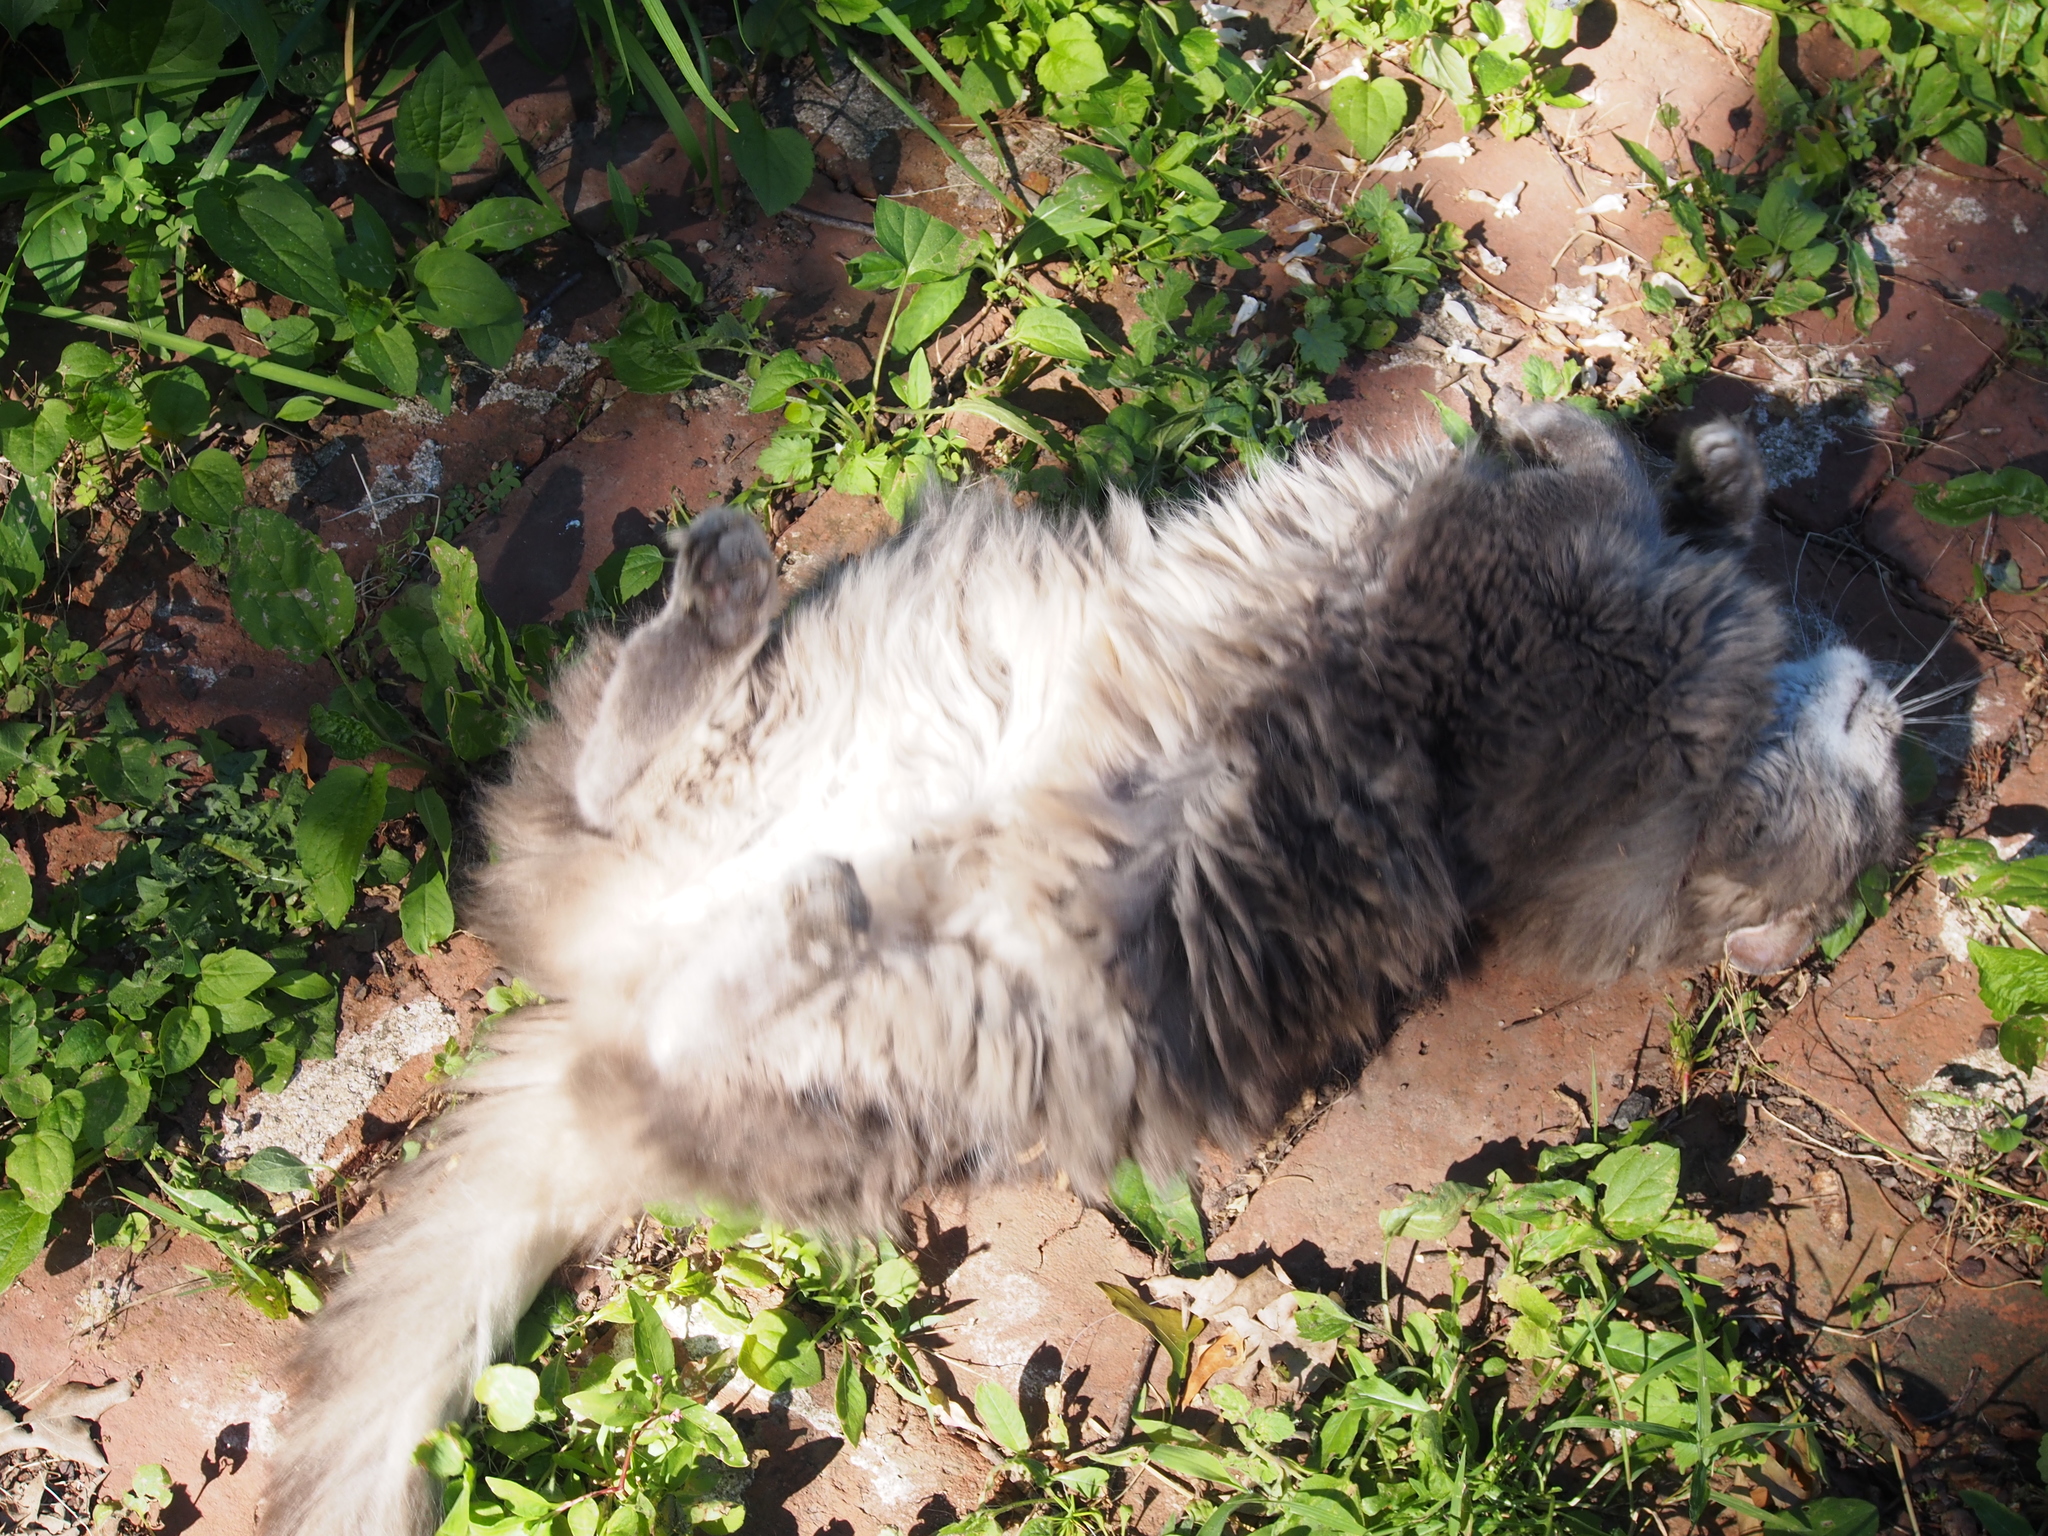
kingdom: Animalia
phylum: Chordata
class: Mammalia
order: Carnivora
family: Felidae
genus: Felis
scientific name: Felis catus
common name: Domestic cat
